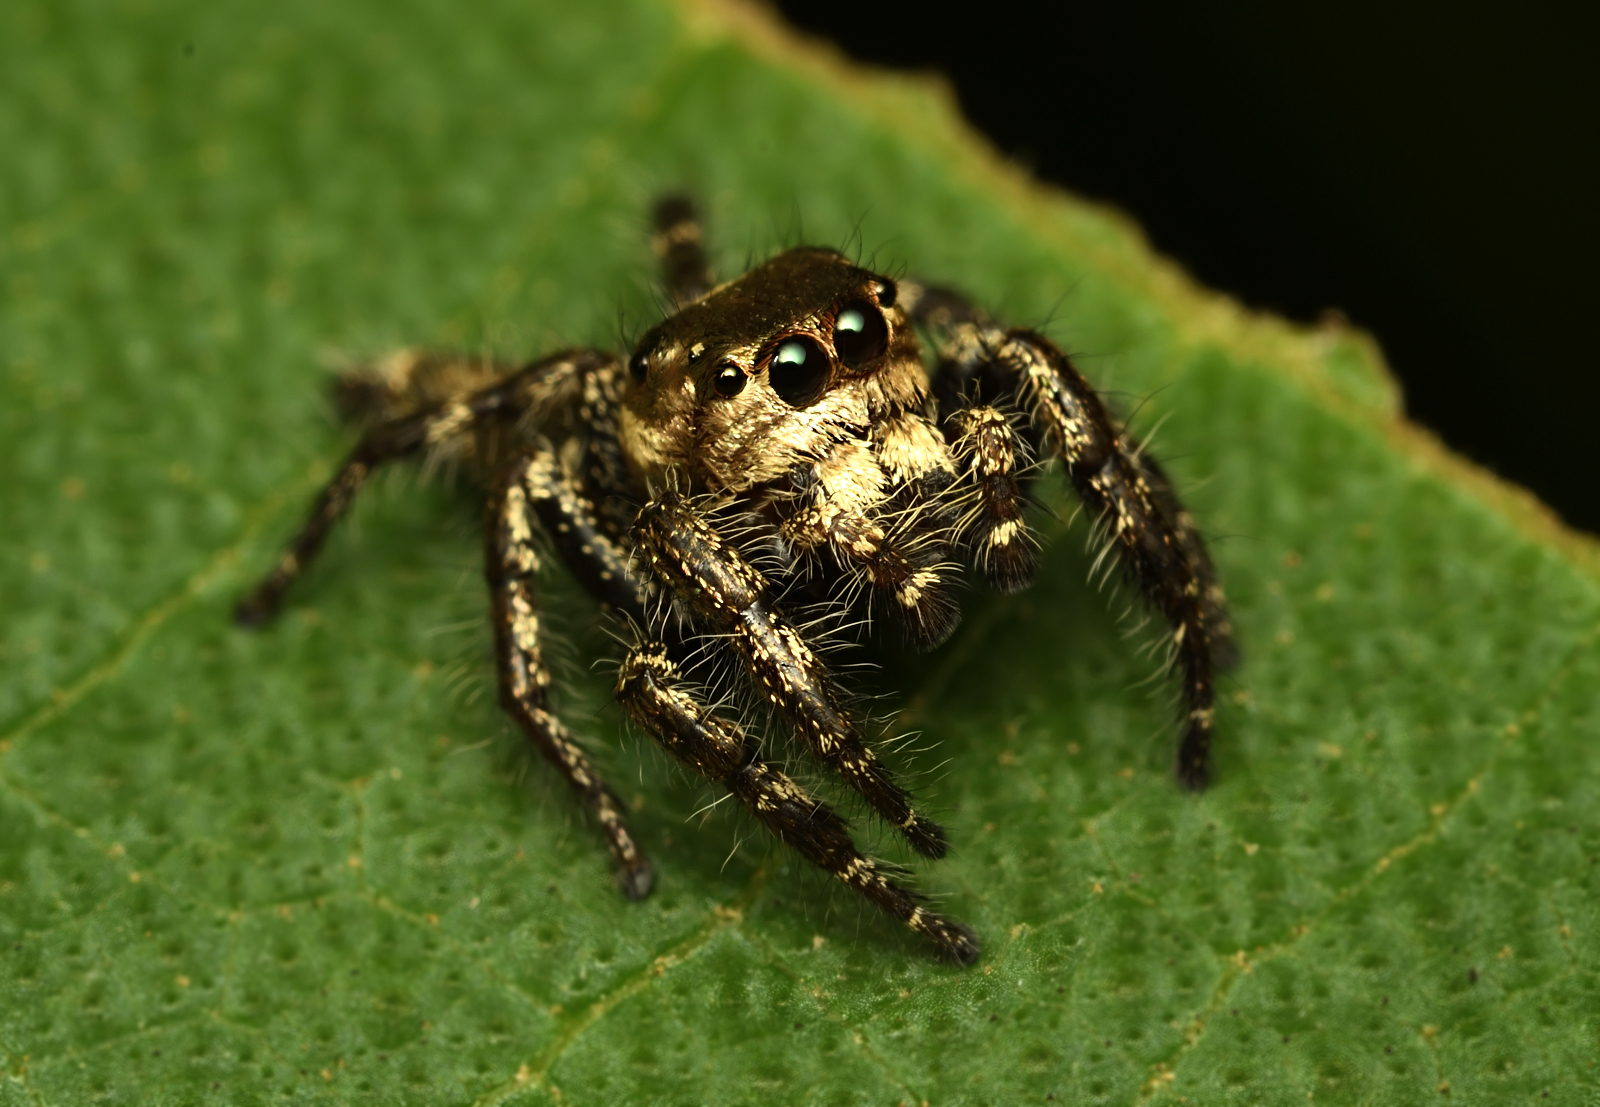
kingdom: Animalia
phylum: Arthropoda
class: Arachnida
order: Araneae
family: Salticidae
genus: Hyllus
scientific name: Hyllus semicupreus
